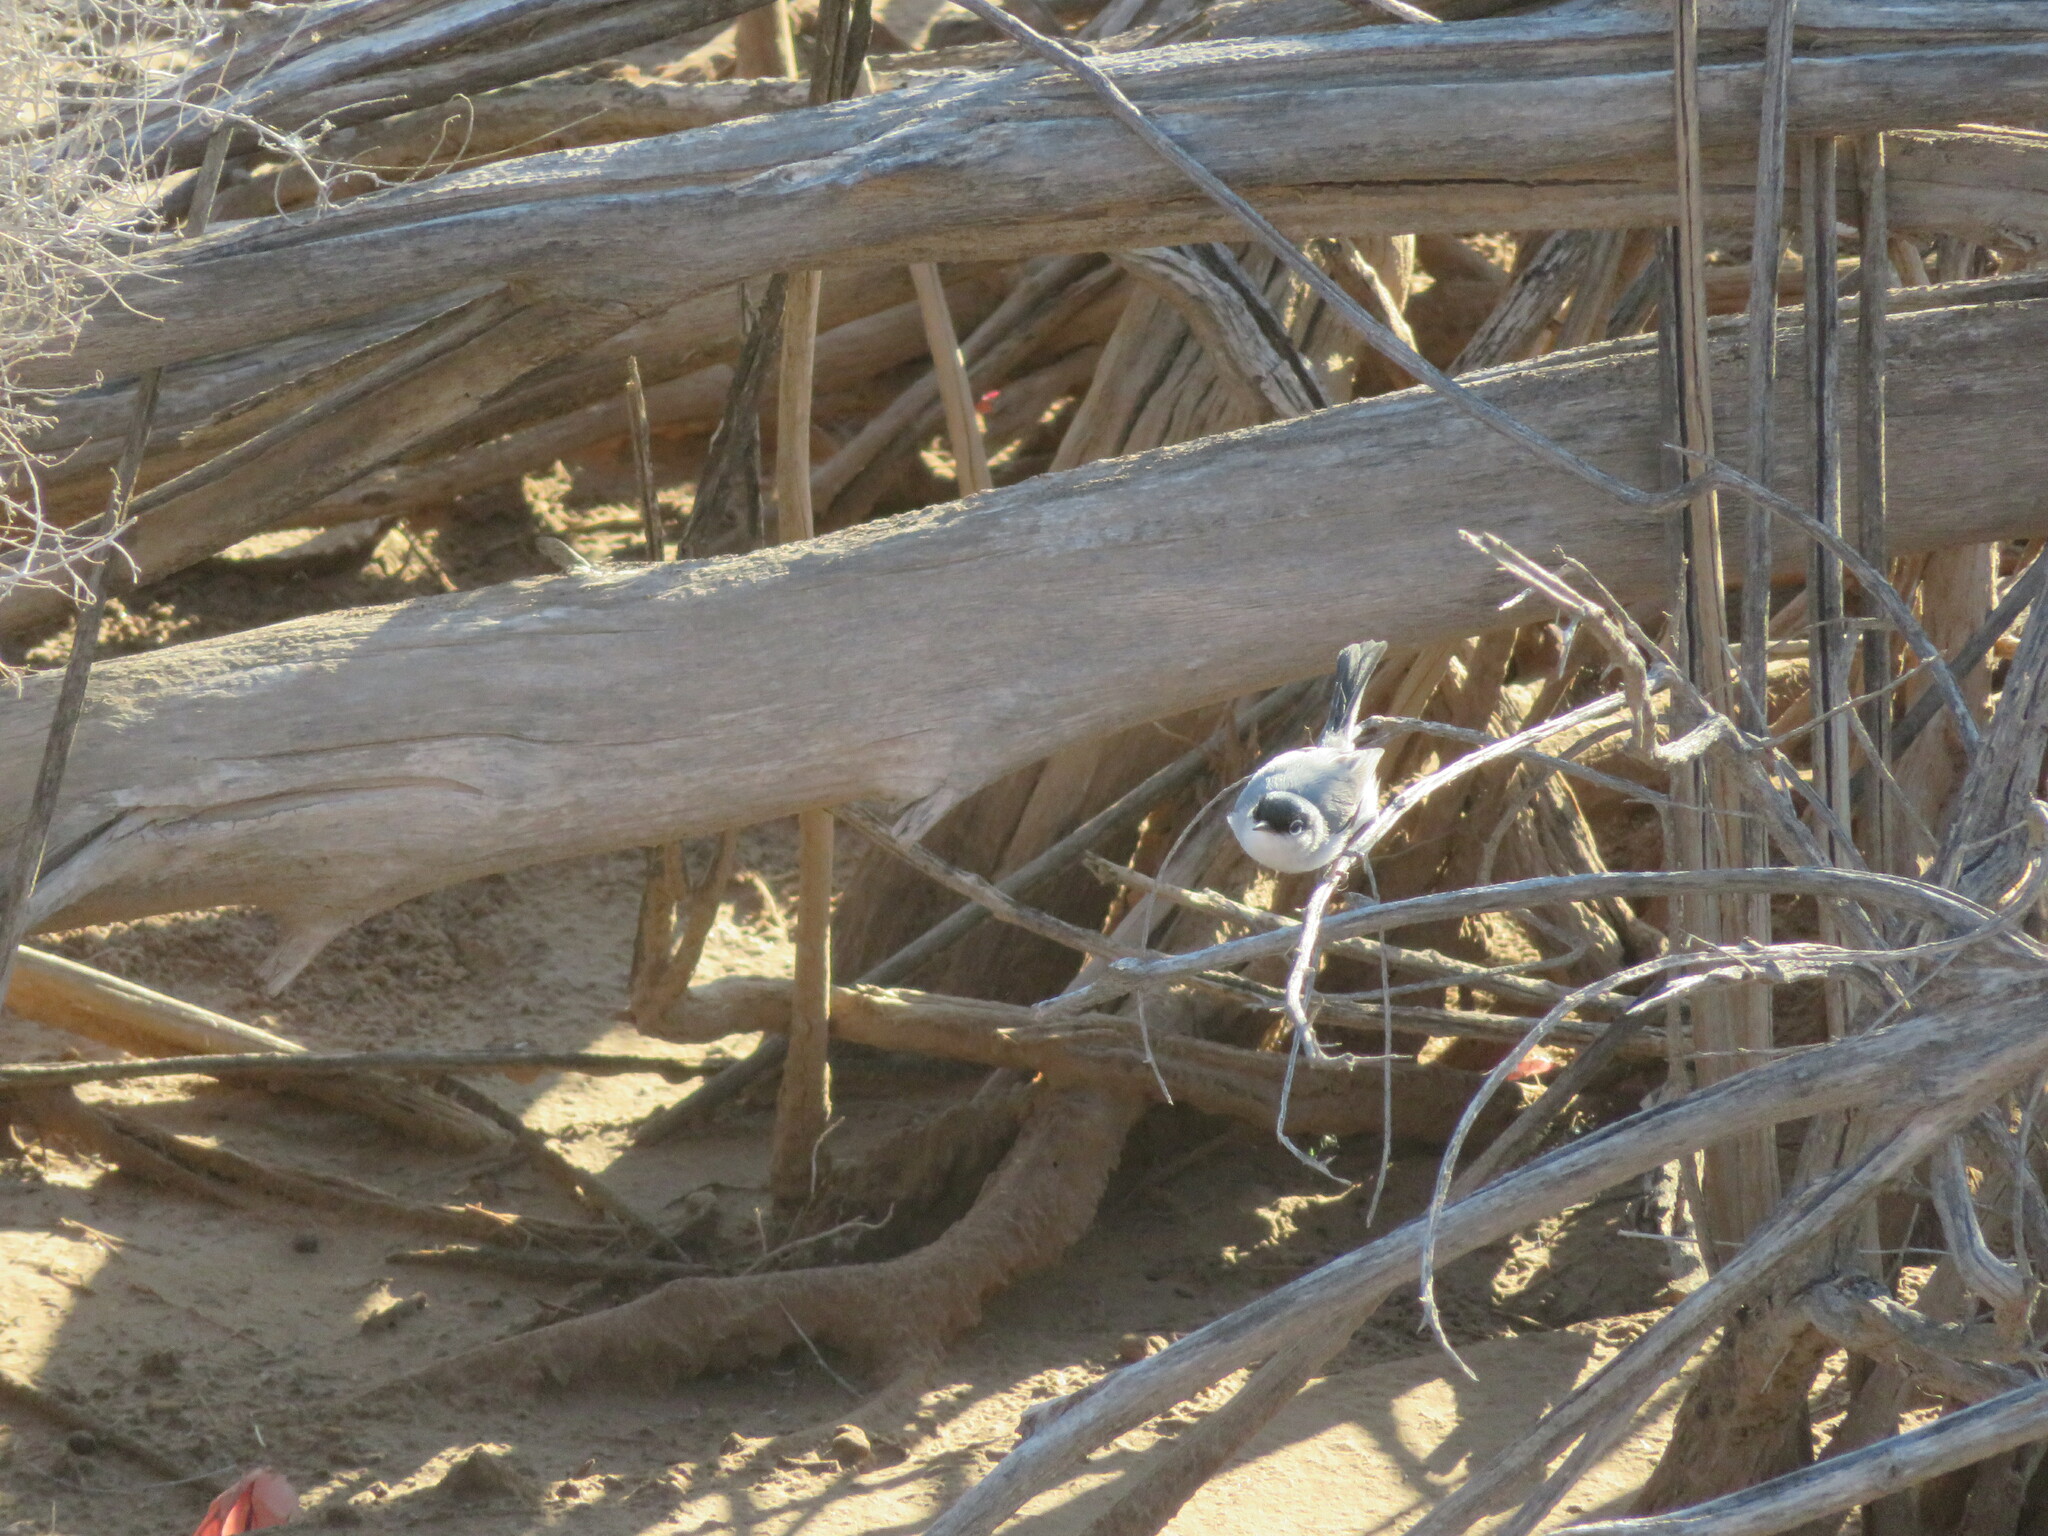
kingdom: Animalia
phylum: Chordata
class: Aves
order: Passeriformes
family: Polioptilidae
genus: Polioptila
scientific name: Polioptila melanura
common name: Black-tailed gnatcatcher
